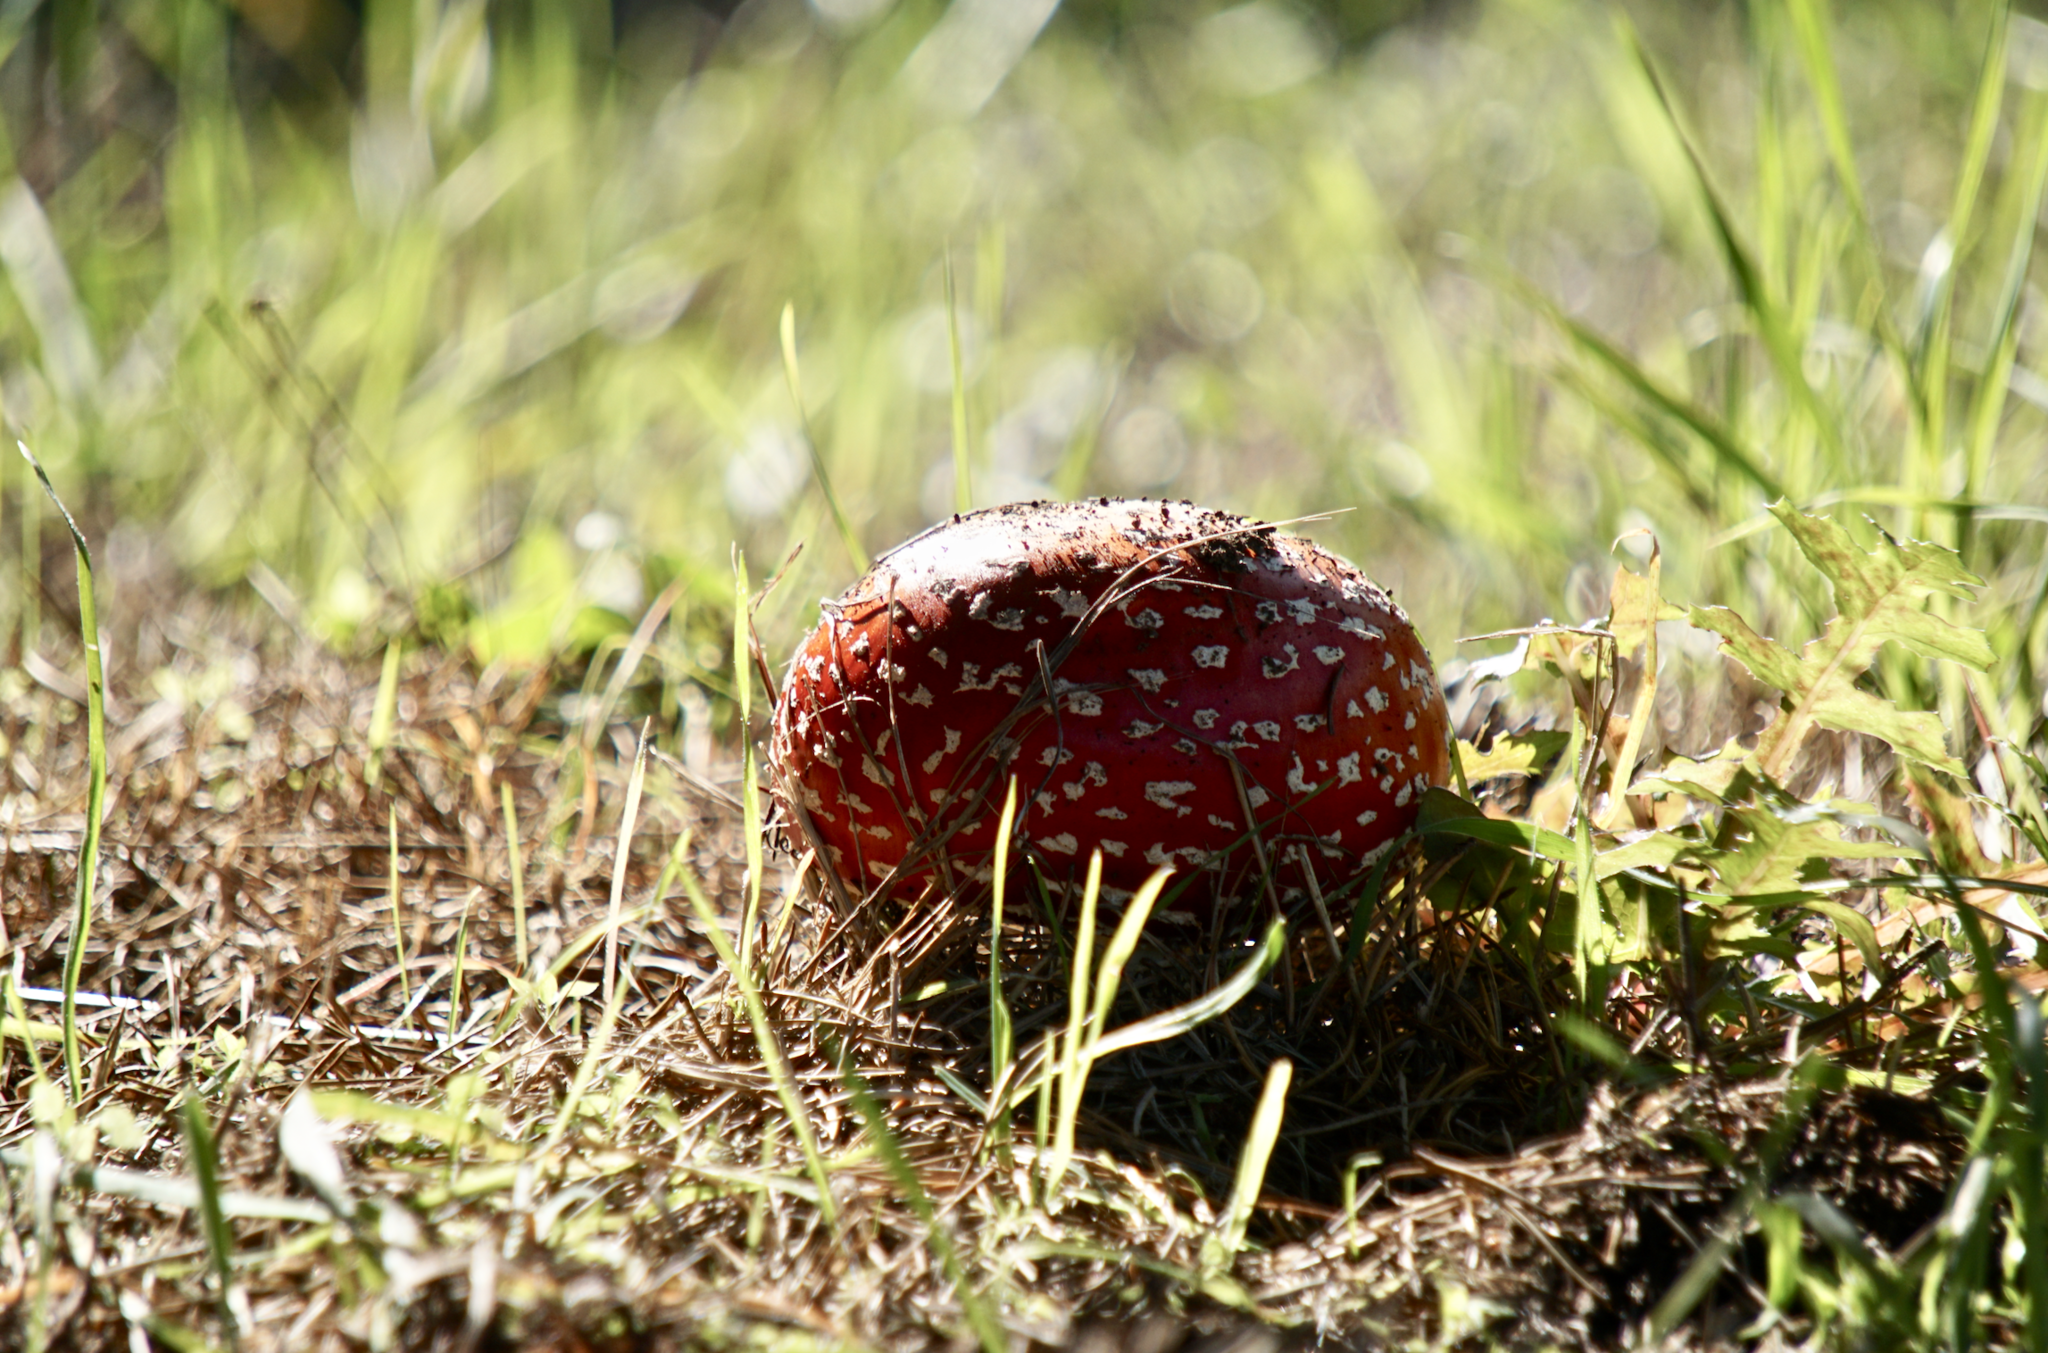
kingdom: Fungi
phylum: Basidiomycota
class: Agaricomycetes
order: Agaricales
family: Amanitaceae
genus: Amanita
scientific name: Amanita muscaria
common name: Fly agaric
